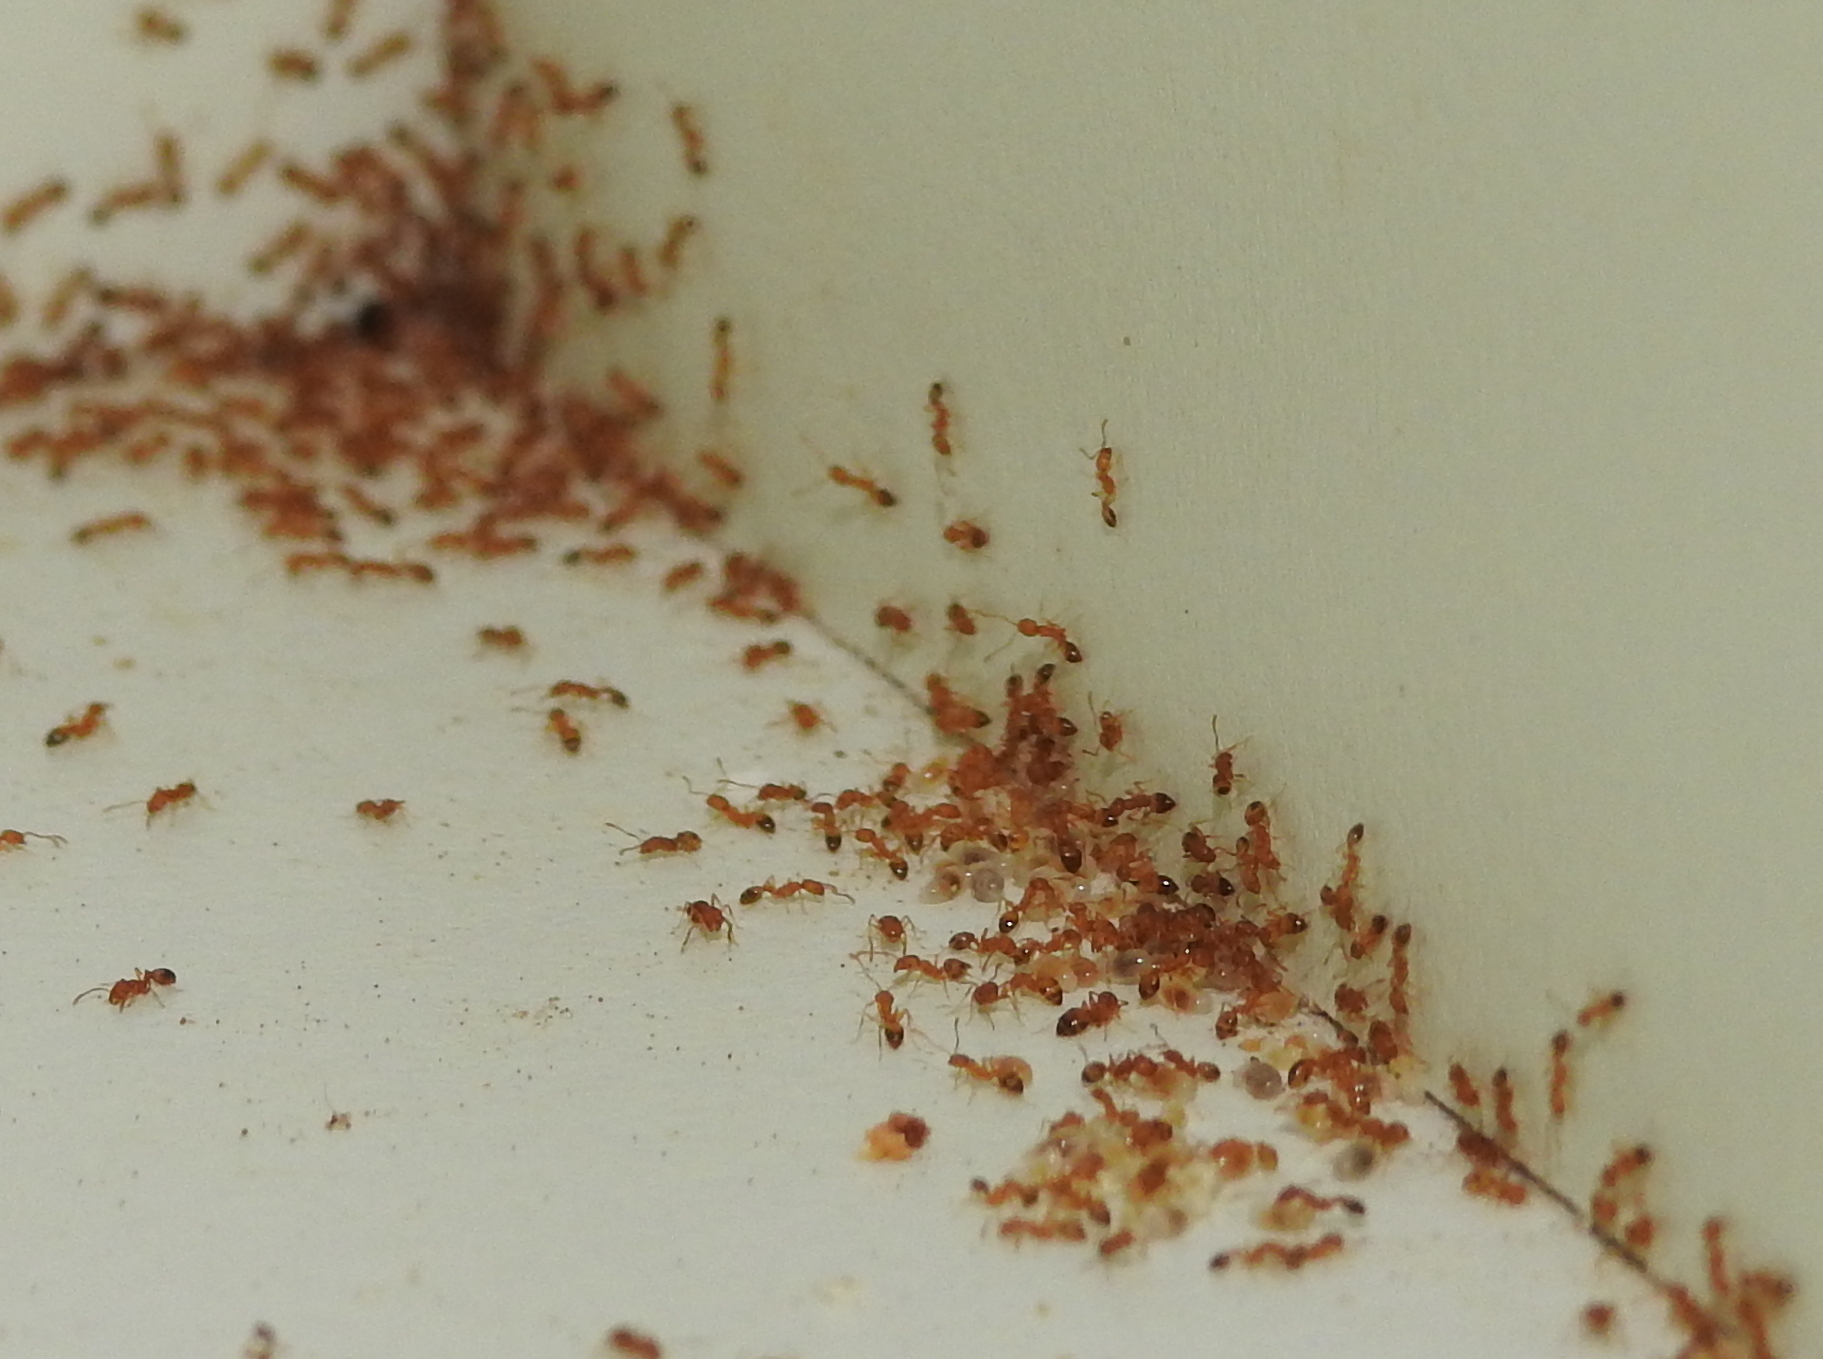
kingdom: Animalia
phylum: Arthropoda
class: Insecta
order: Hymenoptera
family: Formicidae
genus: Monomorium
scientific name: Monomorium pharaonis
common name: Pharaoh ant
